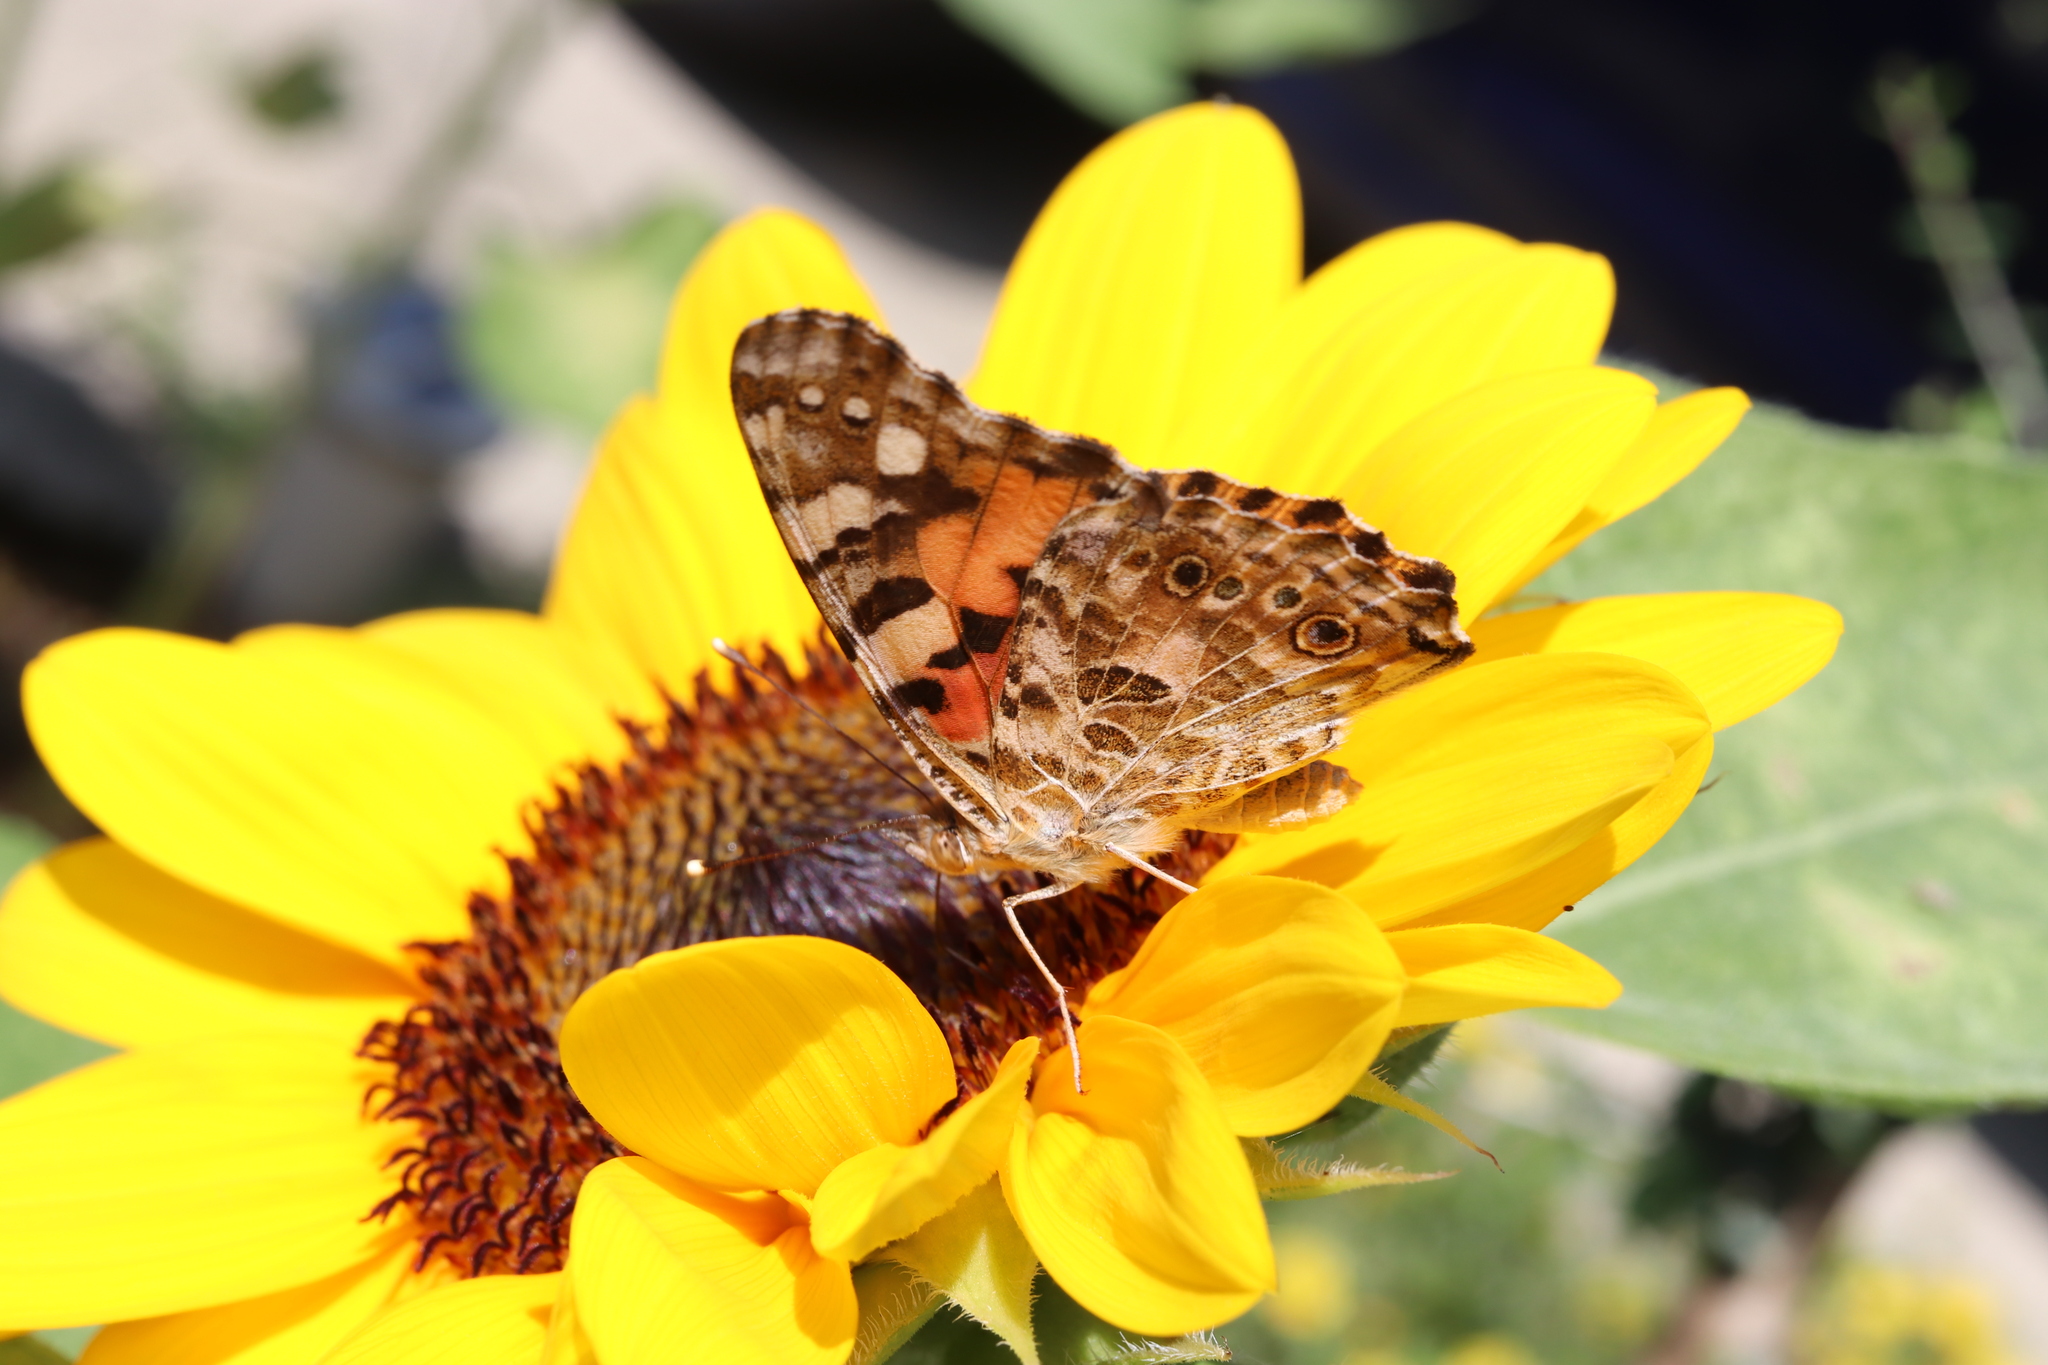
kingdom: Animalia
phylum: Arthropoda
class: Insecta
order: Lepidoptera
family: Nymphalidae
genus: Vanessa
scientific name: Vanessa cardui
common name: Painted lady
